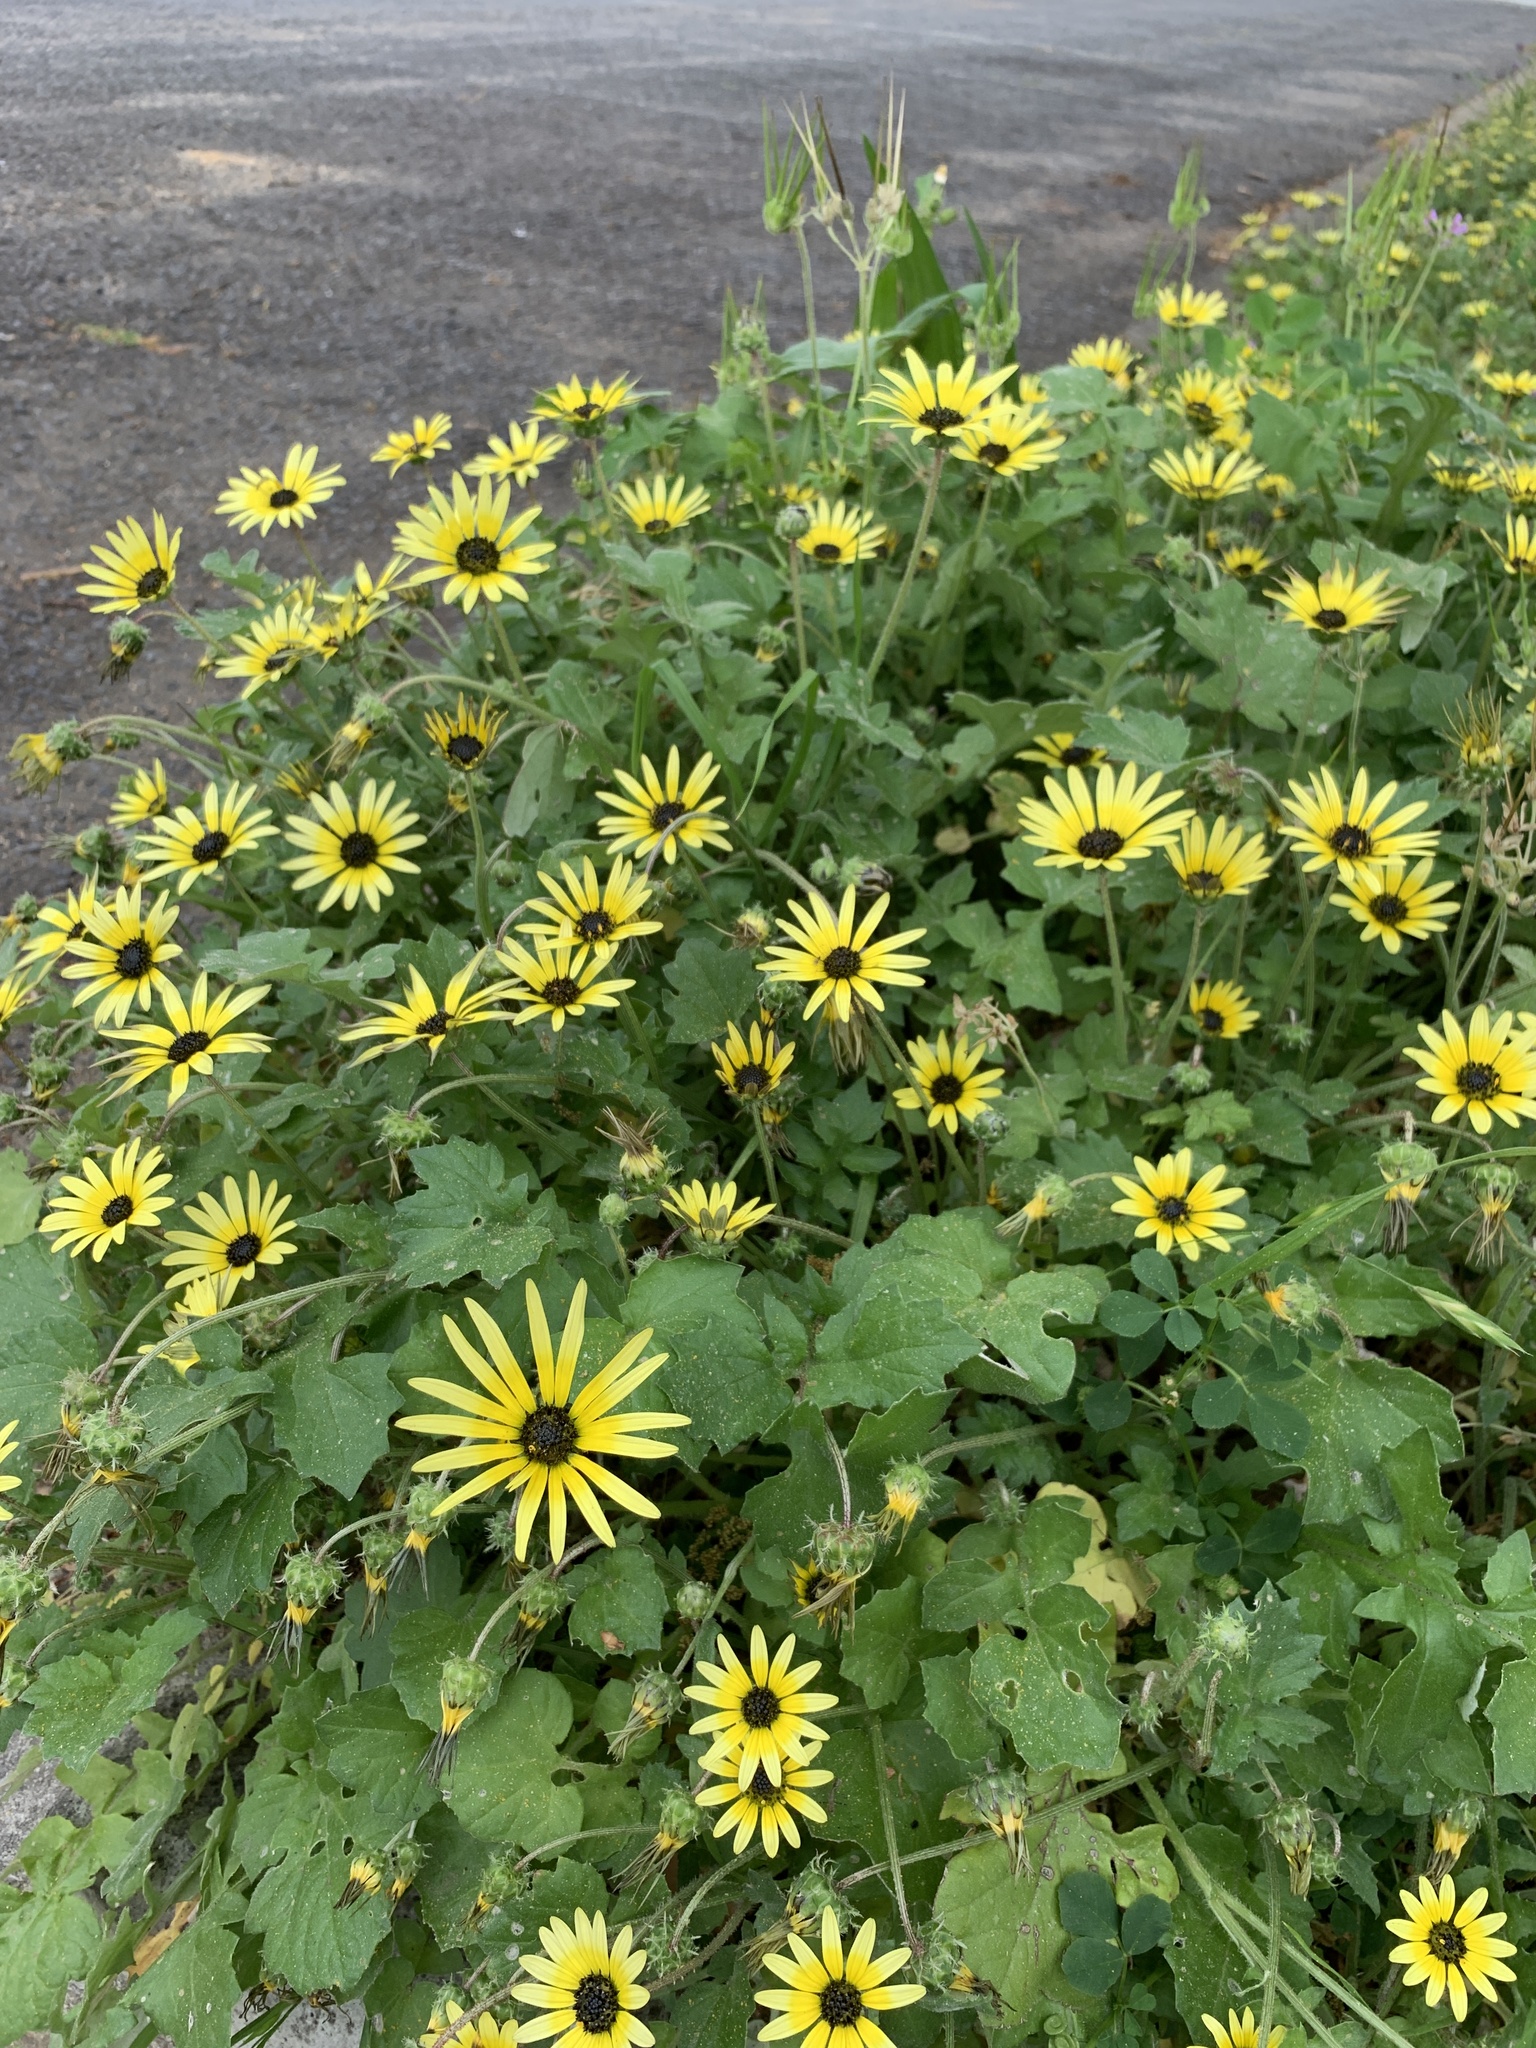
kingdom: Plantae
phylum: Tracheophyta
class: Magnoliopsida
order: Asterales
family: Asteraceae
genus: Arctotheca
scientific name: Arctotheca calendula
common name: Capeweed
